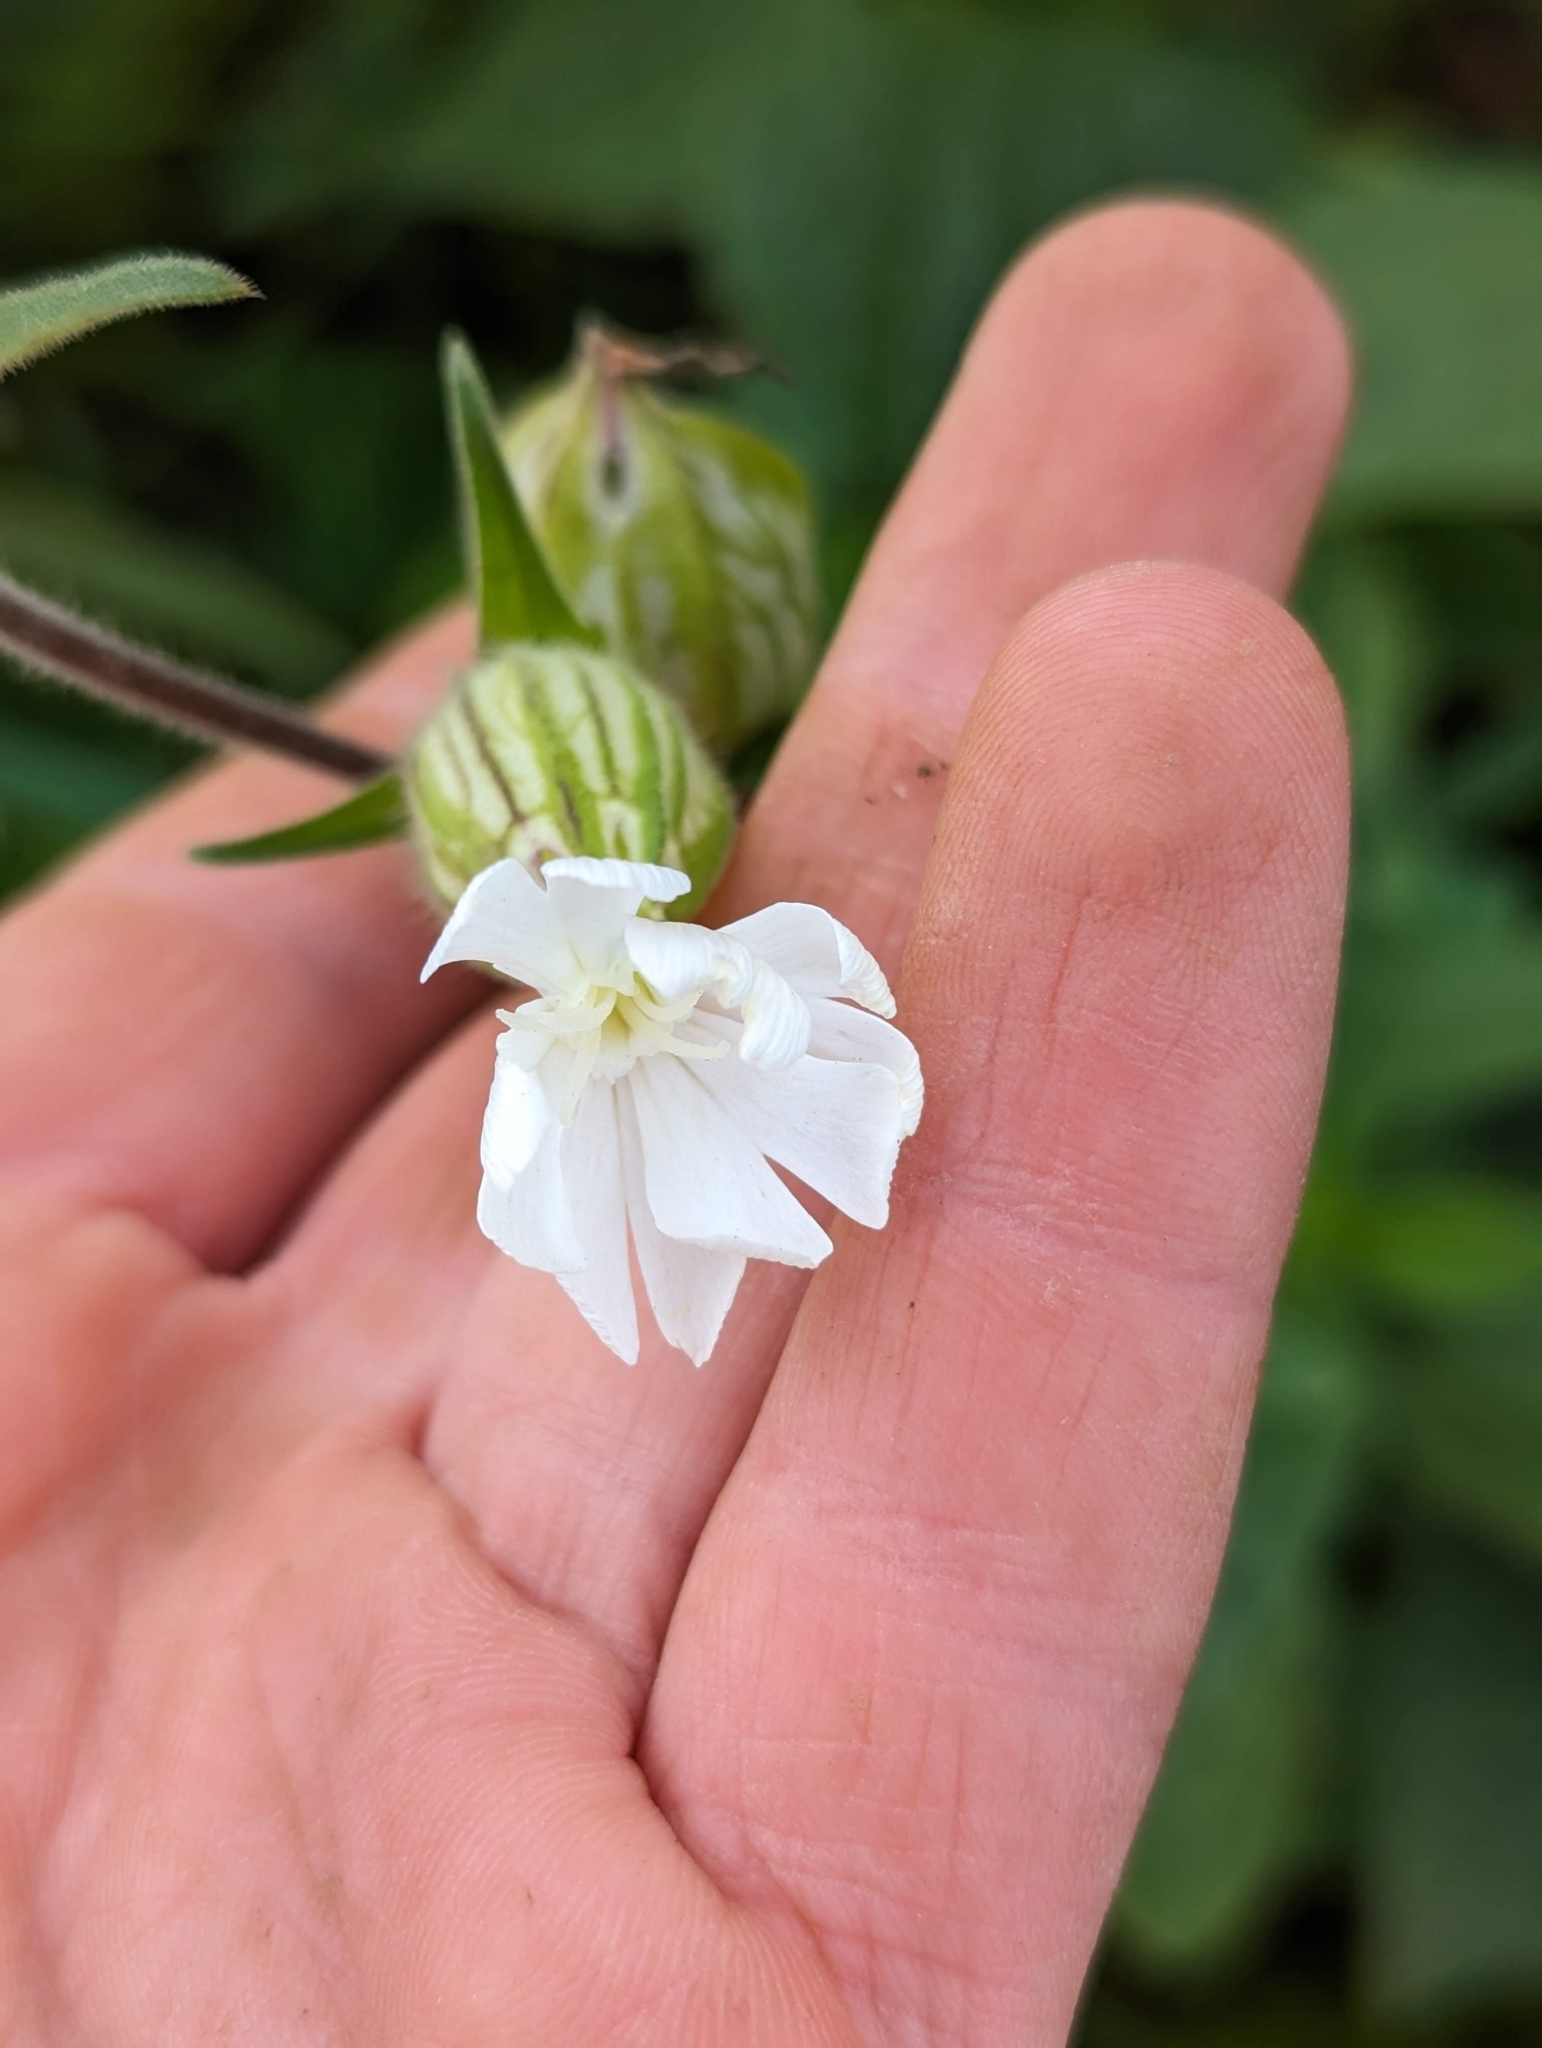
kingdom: Plantae
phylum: Tracheophyta
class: Magnoliopsida
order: Caryophyllales
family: Caryophyllaceae
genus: Silene
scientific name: Silene latifolia
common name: White campion
